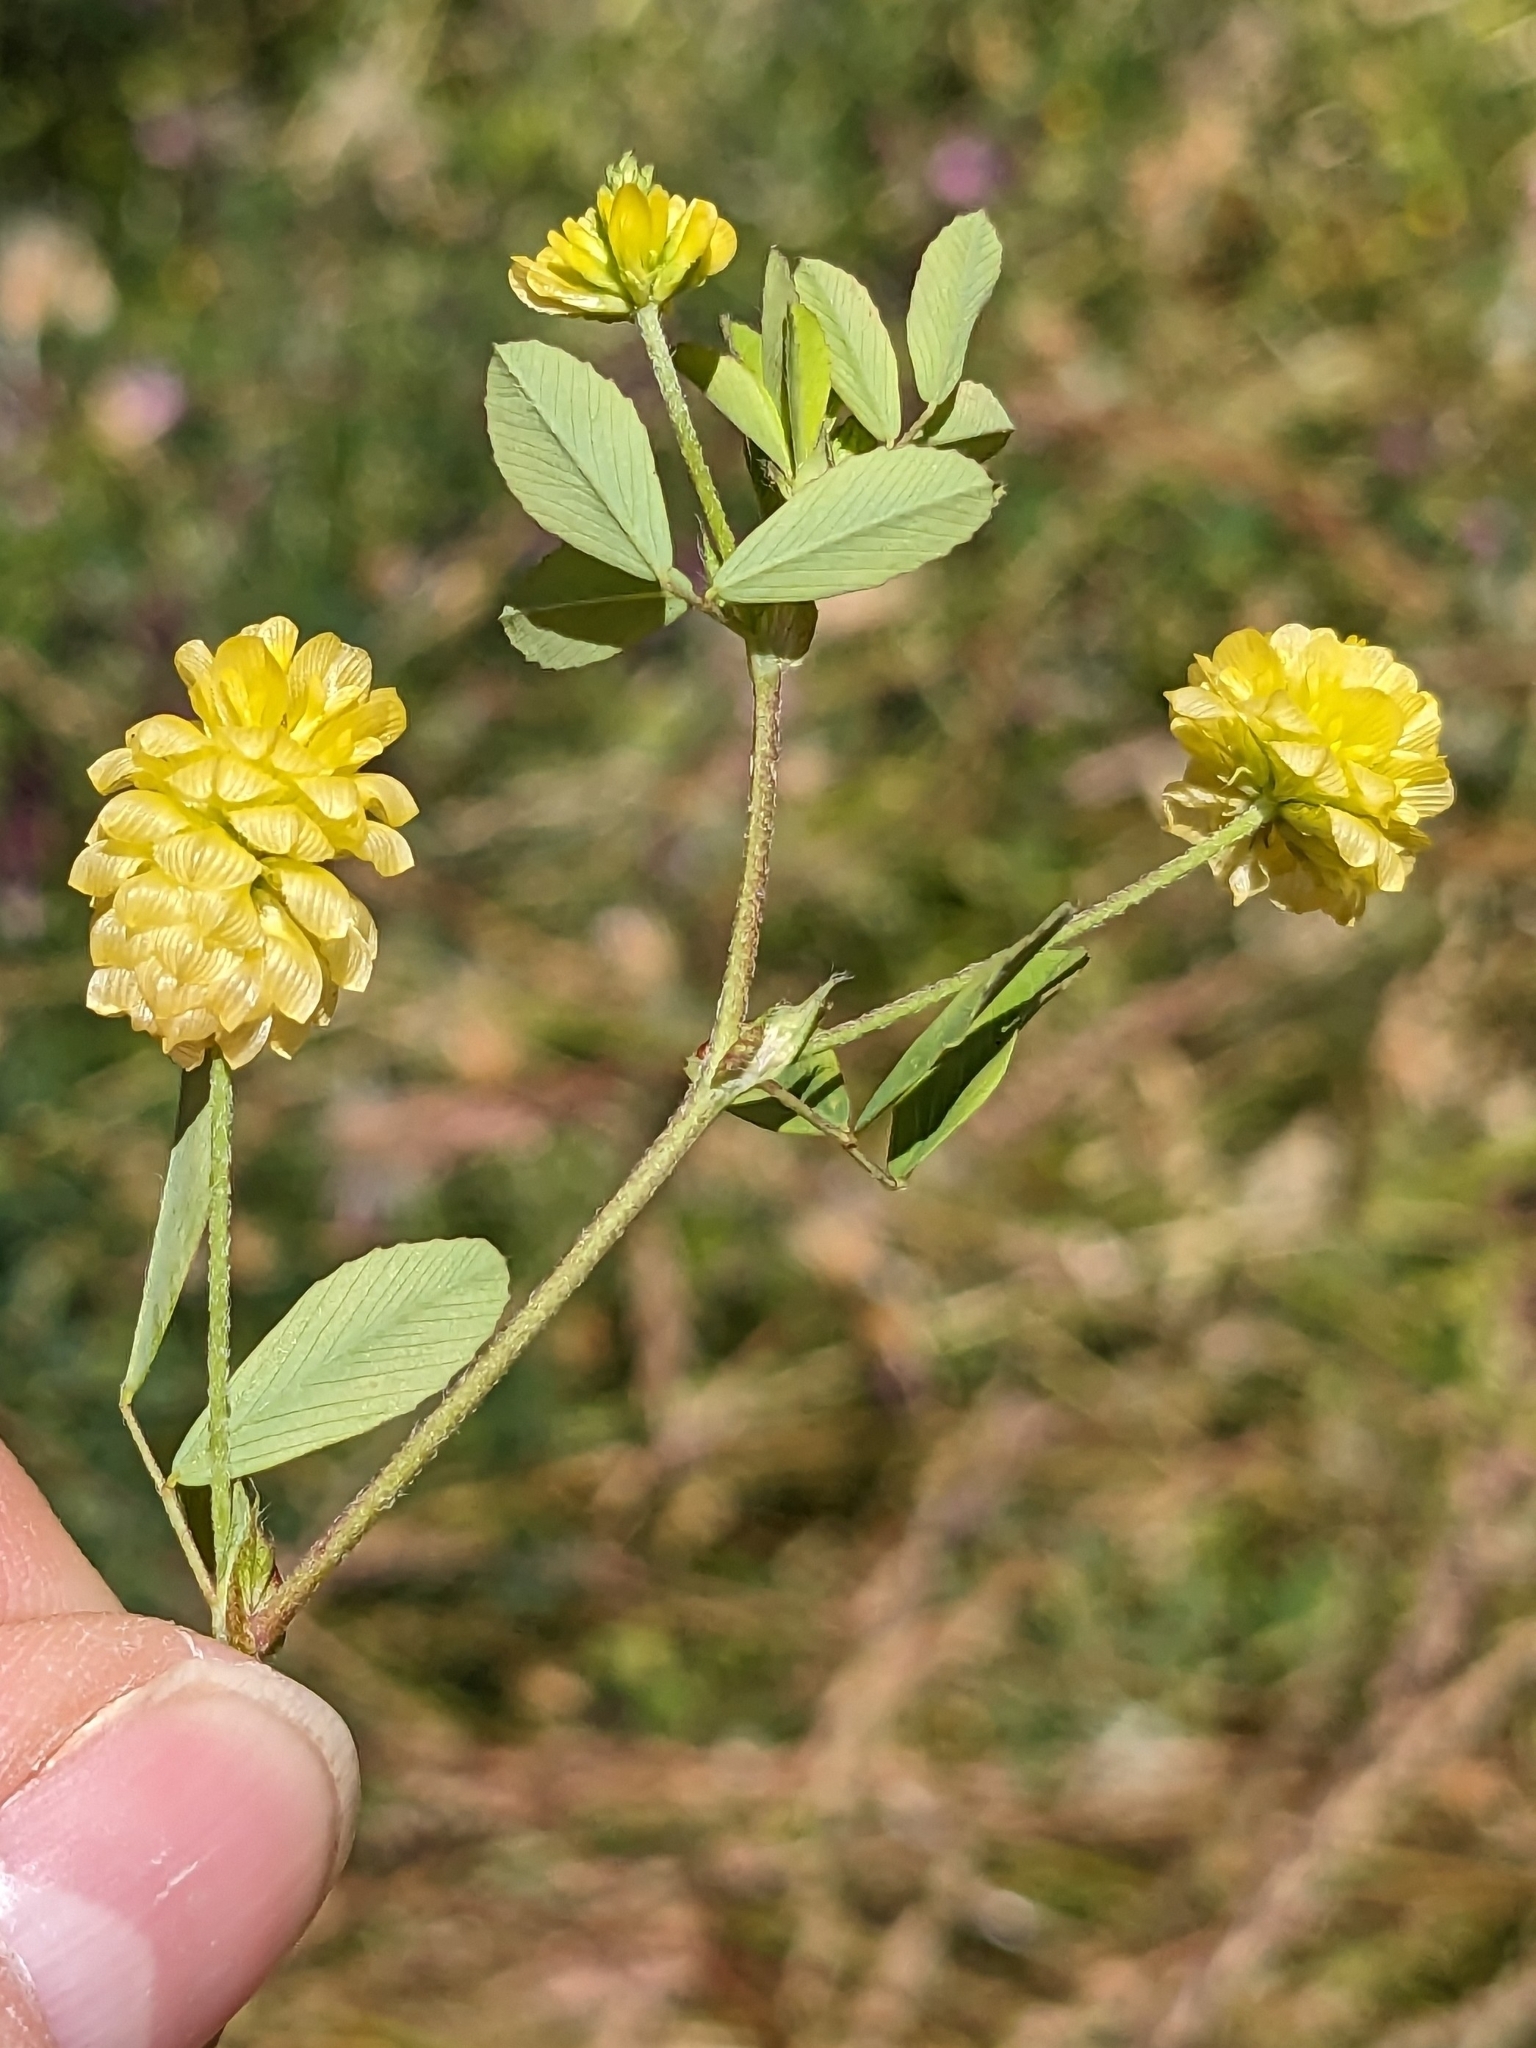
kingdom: Plantae
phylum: Tracheophyta
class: Magnoliopsida
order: Fabales
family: Fabaceae
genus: Trifolium
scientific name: Trifolium campestre
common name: Field clover
